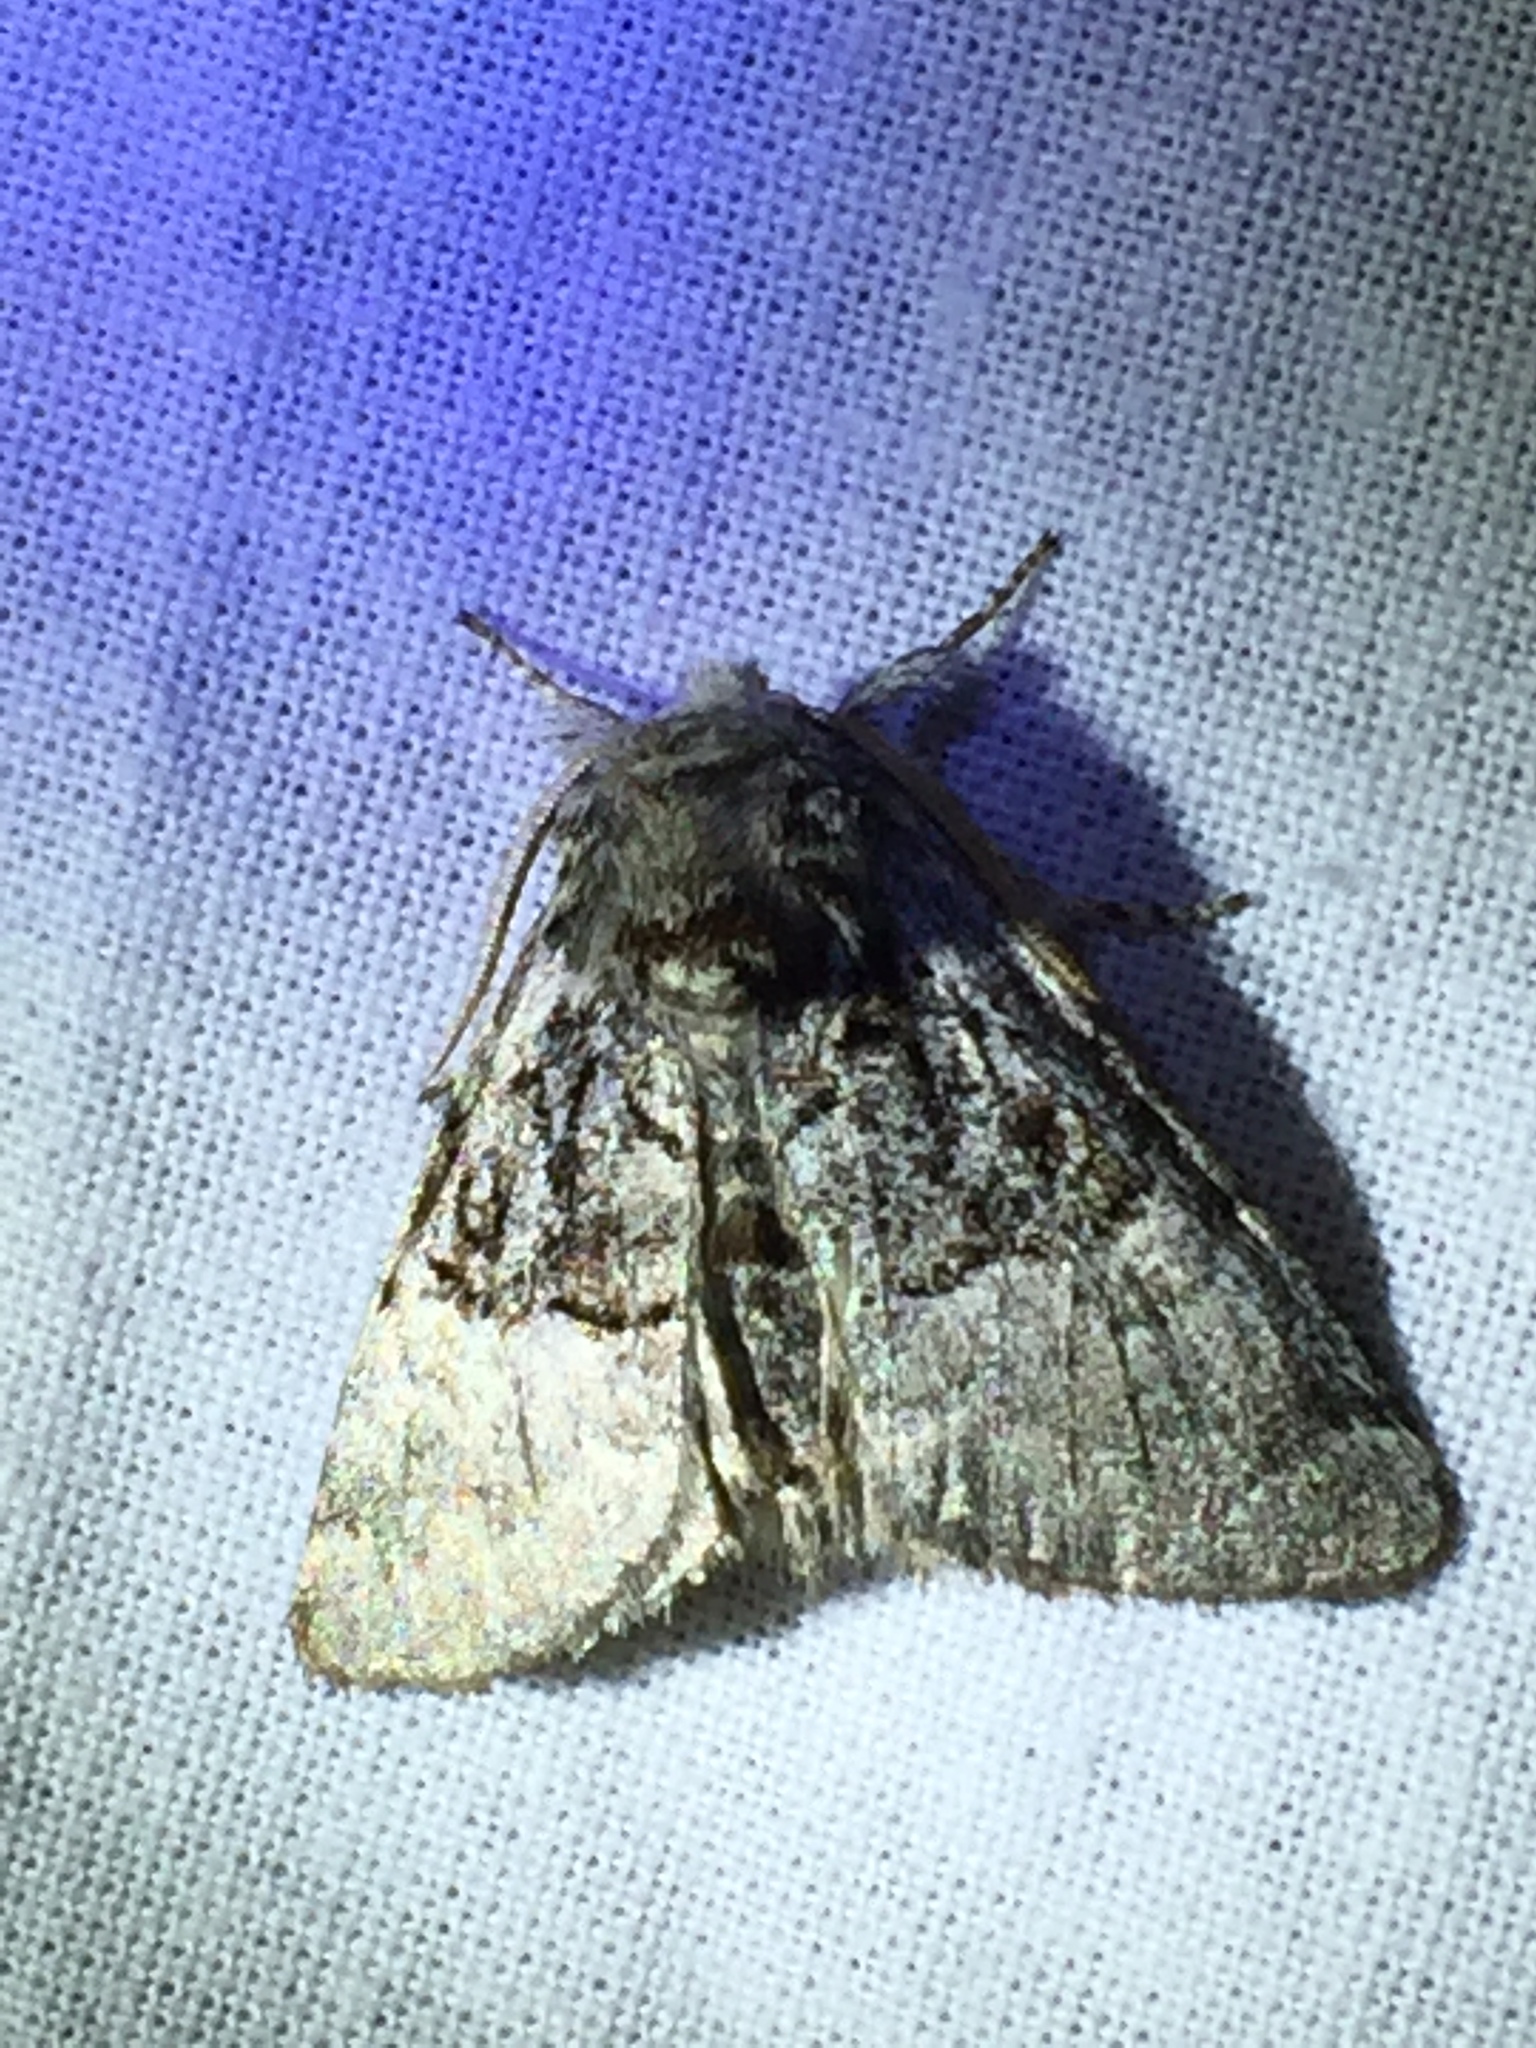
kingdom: Animalia
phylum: Arthropoda
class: Insecta
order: Lepidoptera
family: Noctuidae
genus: Colocasia
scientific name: Colocasia coryli
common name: Nut-tree tussock
